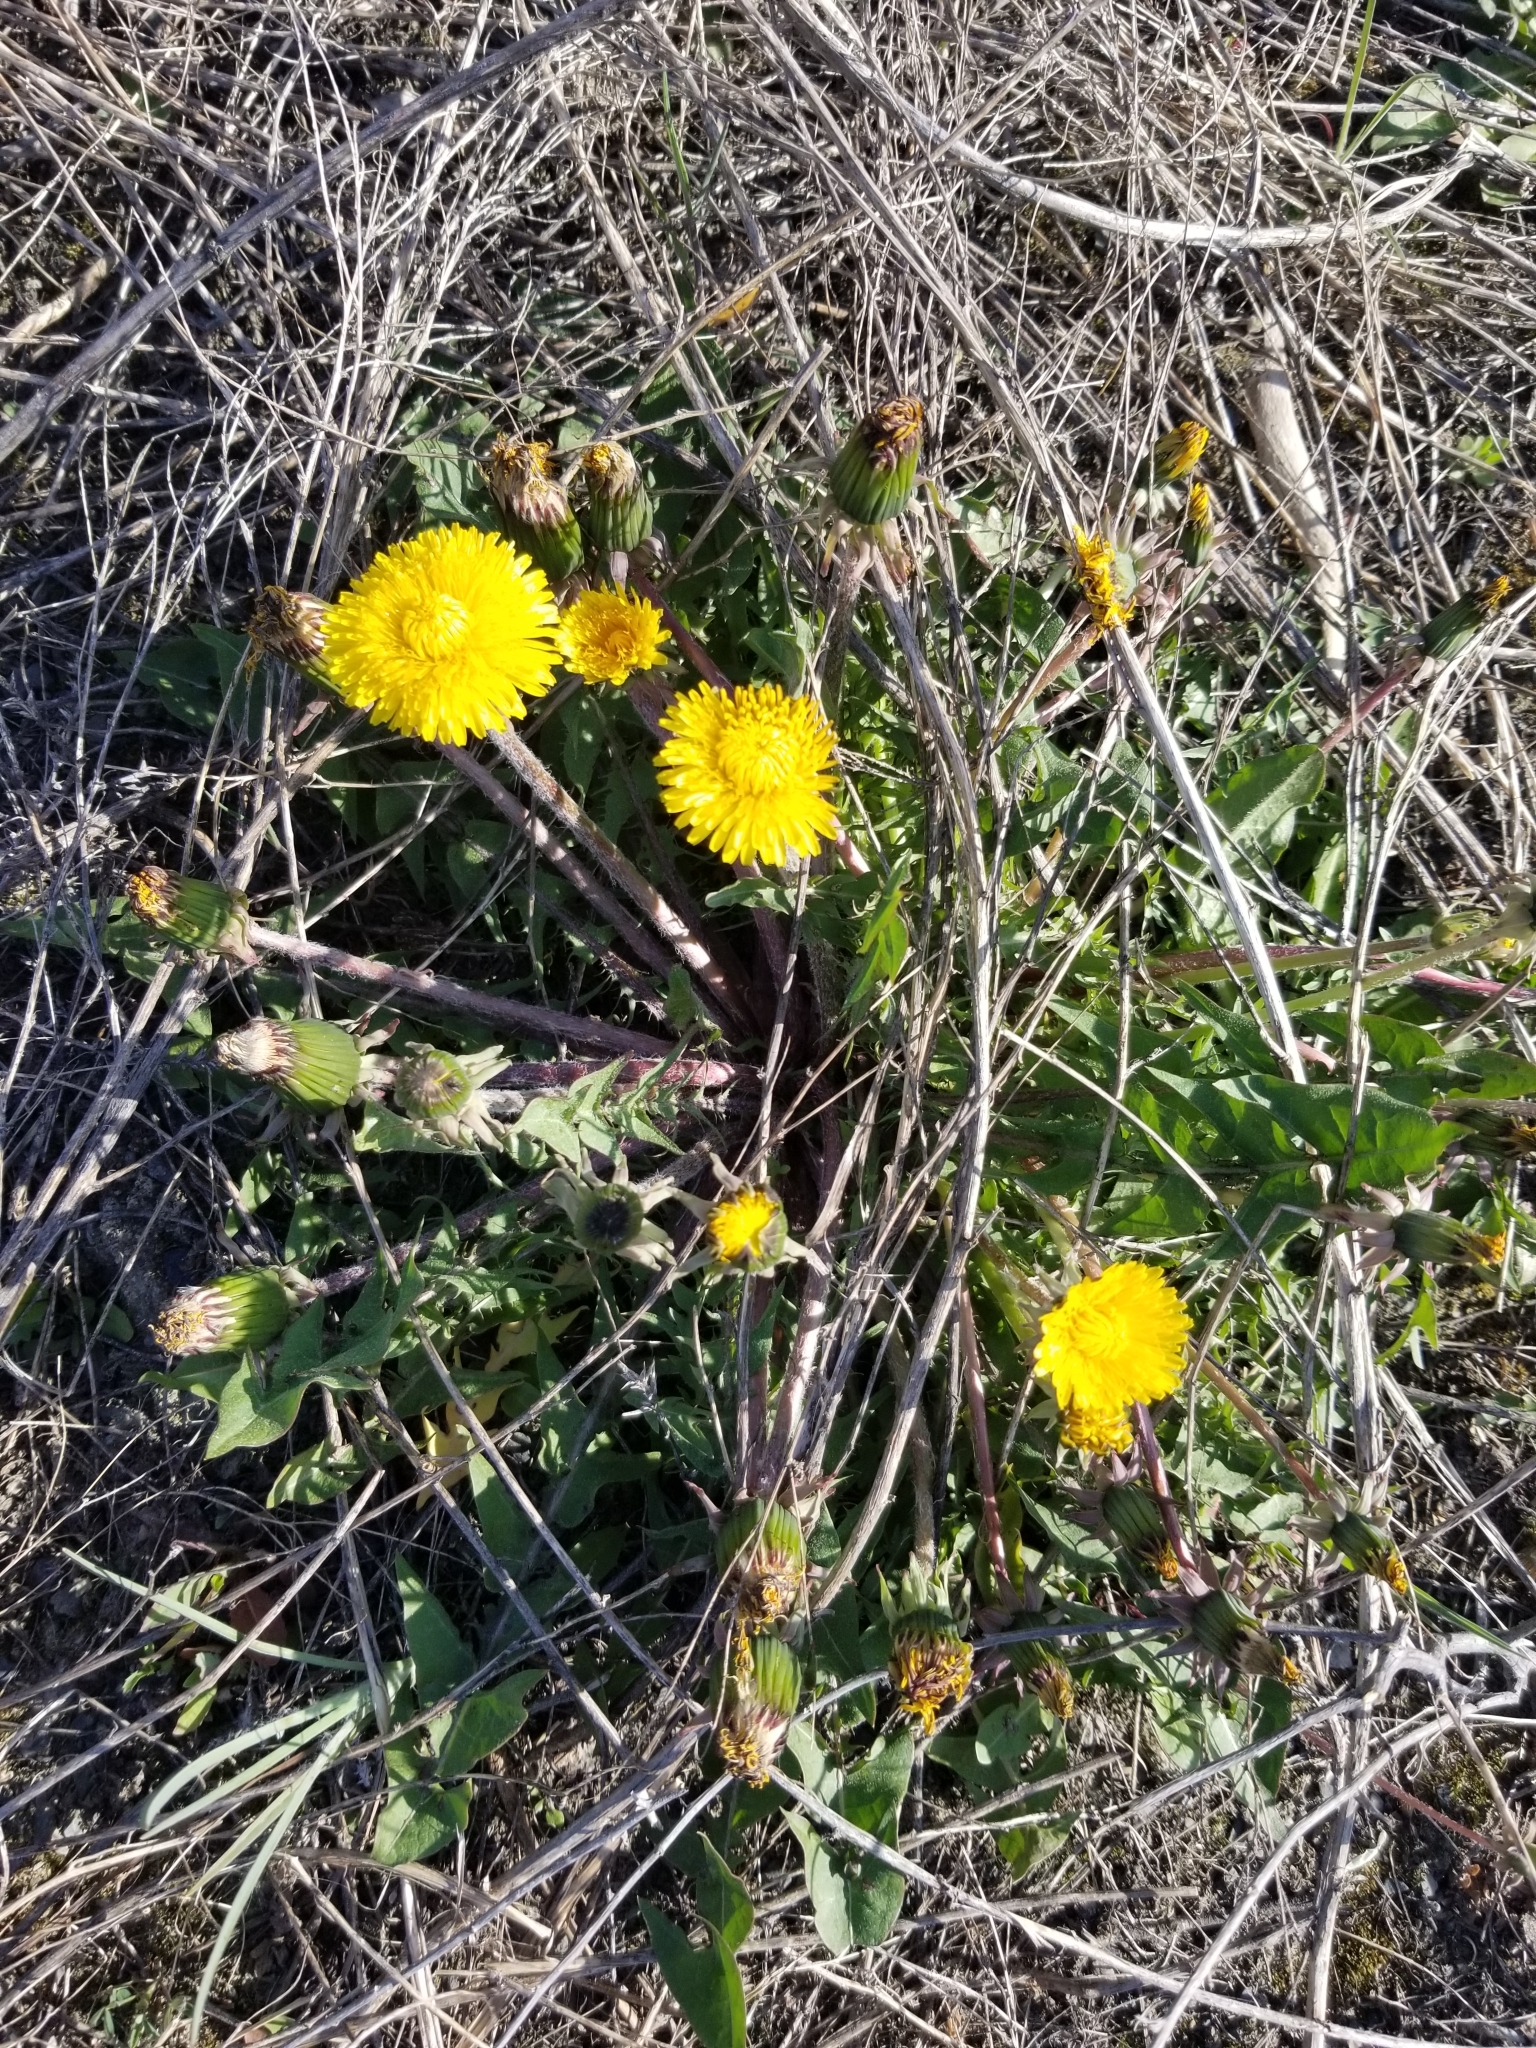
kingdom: Plantae
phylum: Tracheophyta
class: Magnoliopsida
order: Asterales
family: Asteraceae
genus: Taraxacum
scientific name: Taraxacum officinale
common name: Common dandelion
